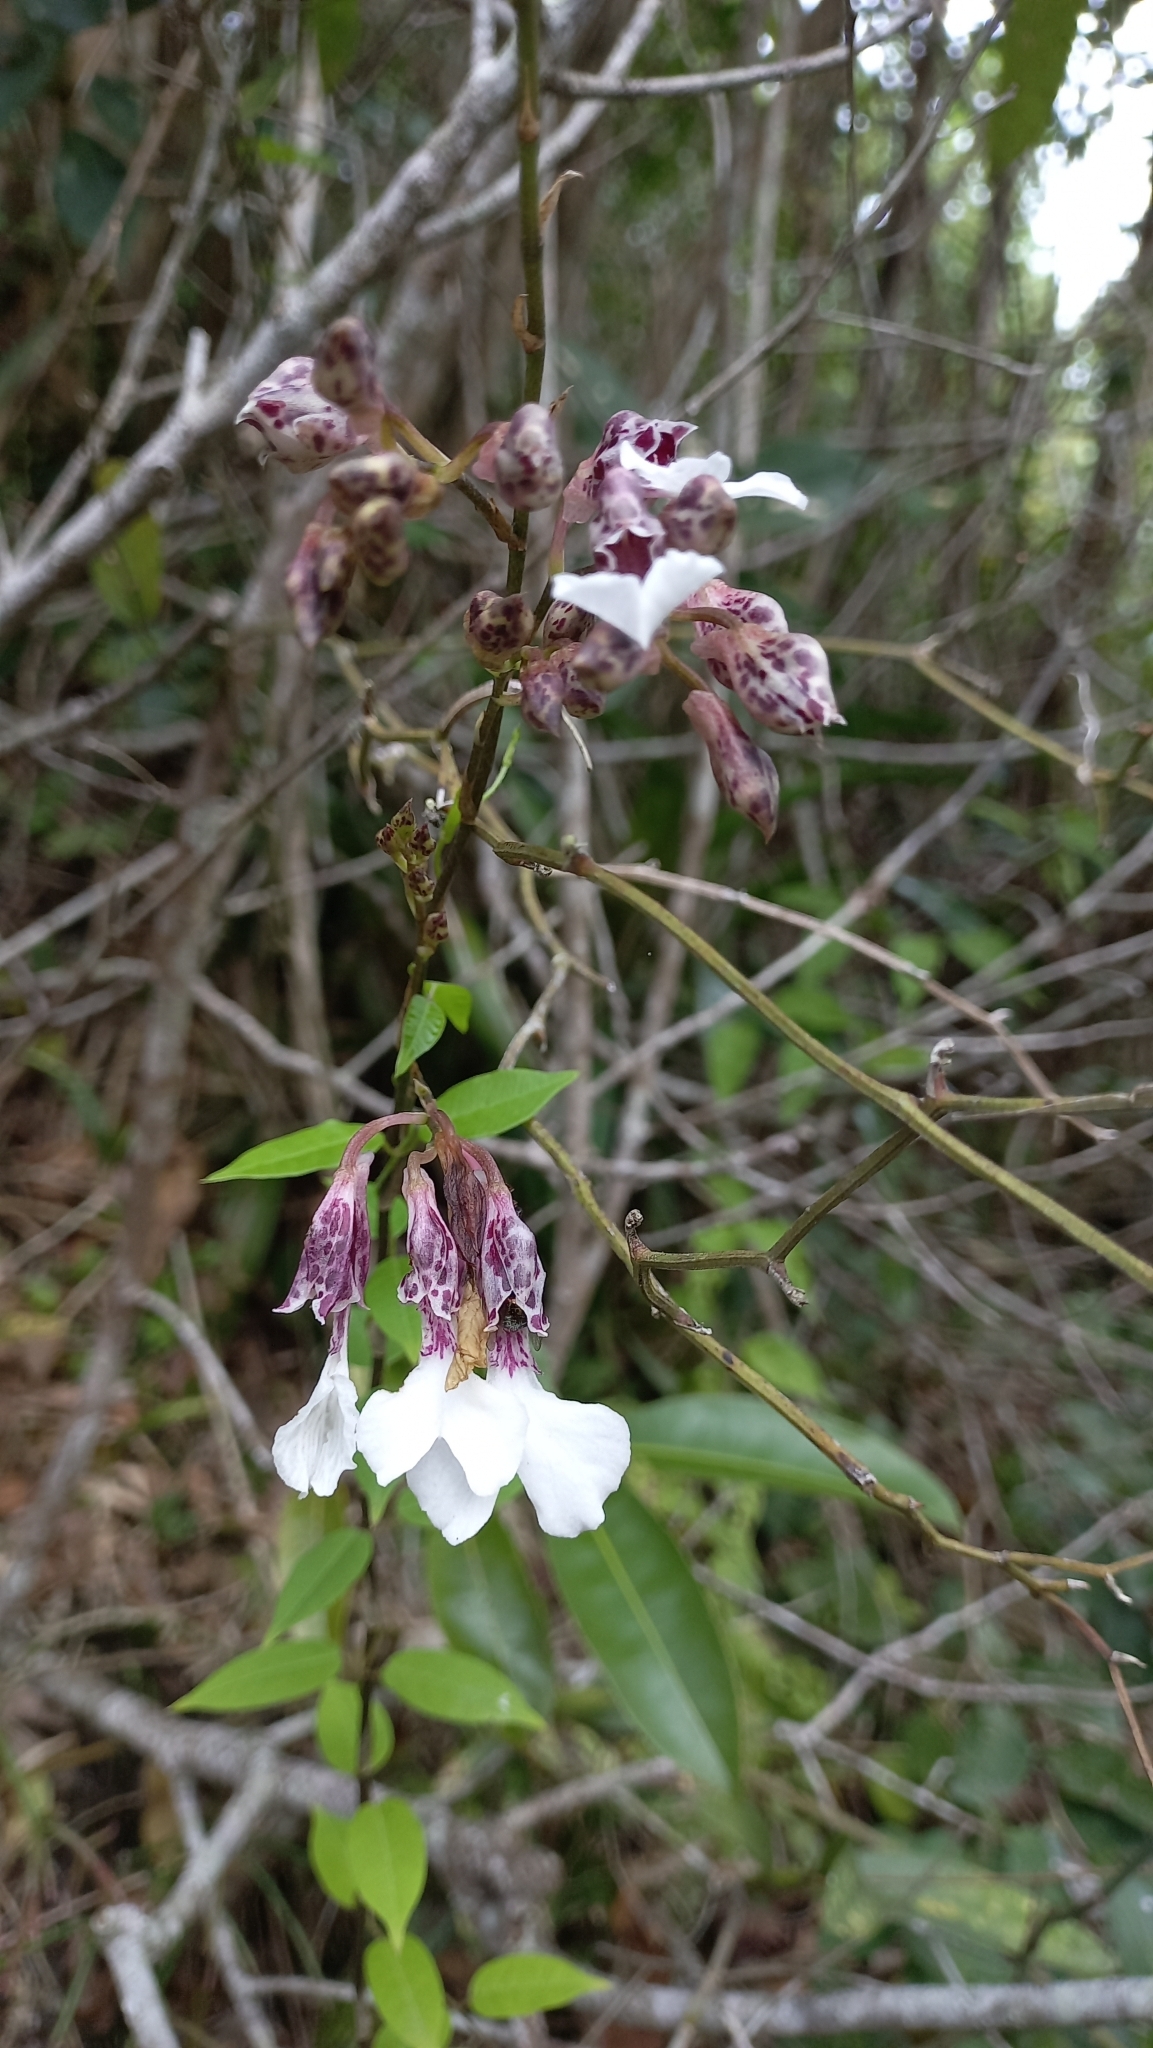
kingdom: Plantae
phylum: Tracheophyta
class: Liliopsida
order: Asparagales
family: Orchidaceae
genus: Rodriguezia
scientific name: Rodriguezia decora
